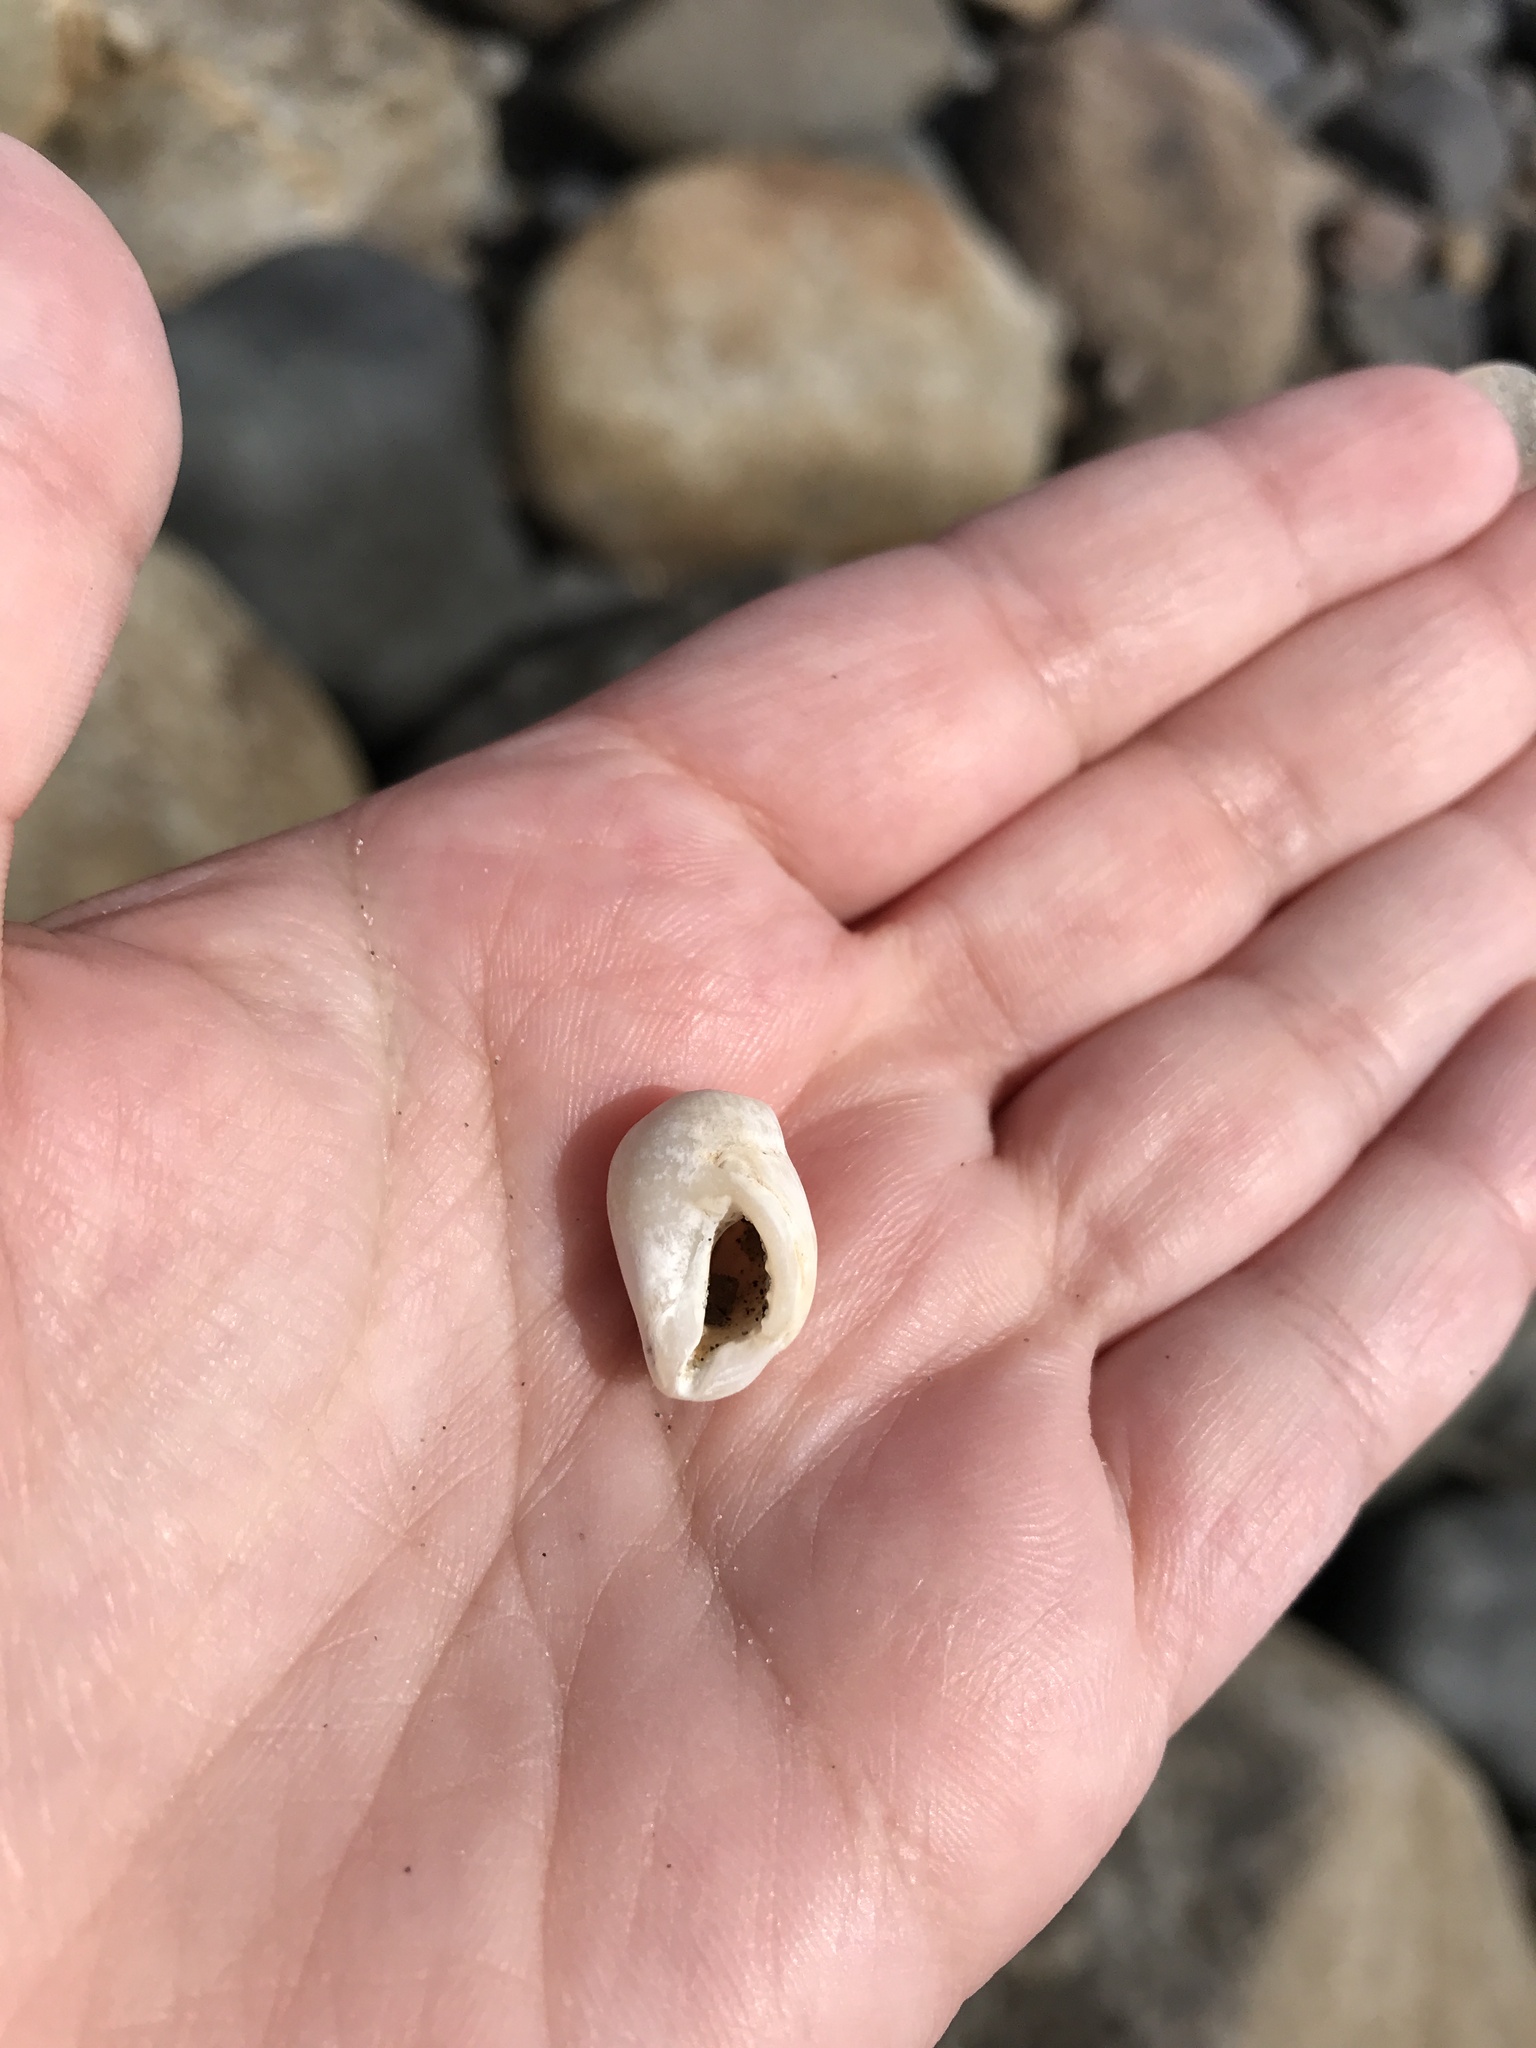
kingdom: Animalia
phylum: Mollusca
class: Gastropoda
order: Neogastropoda
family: Muricidae
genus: Nucella
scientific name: Nucella lapillus
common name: Dog whelk
